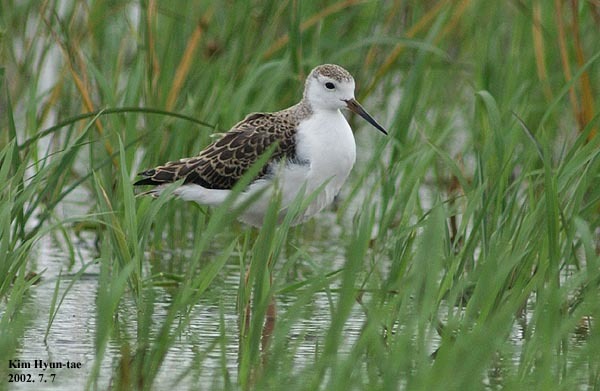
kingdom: Animalia
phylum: Chordata
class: Aves
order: Charadriiformes
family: Recurvirostridae
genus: Himantopus
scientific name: Himantopus himantopus
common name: Black-winged stilt
